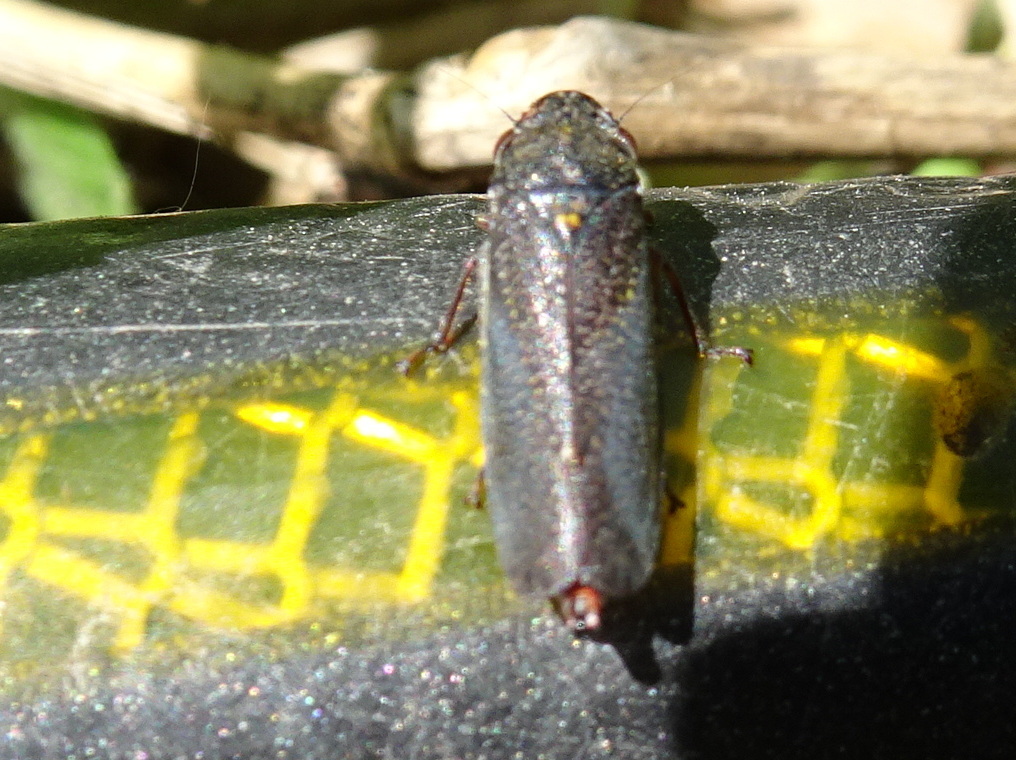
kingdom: Animalia
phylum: Arthropoda
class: Insecta
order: Hemiptera
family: Cicadellidae
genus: Paraulacizes
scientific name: Paraulacizes irrorata
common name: Speckled sharpshooter
